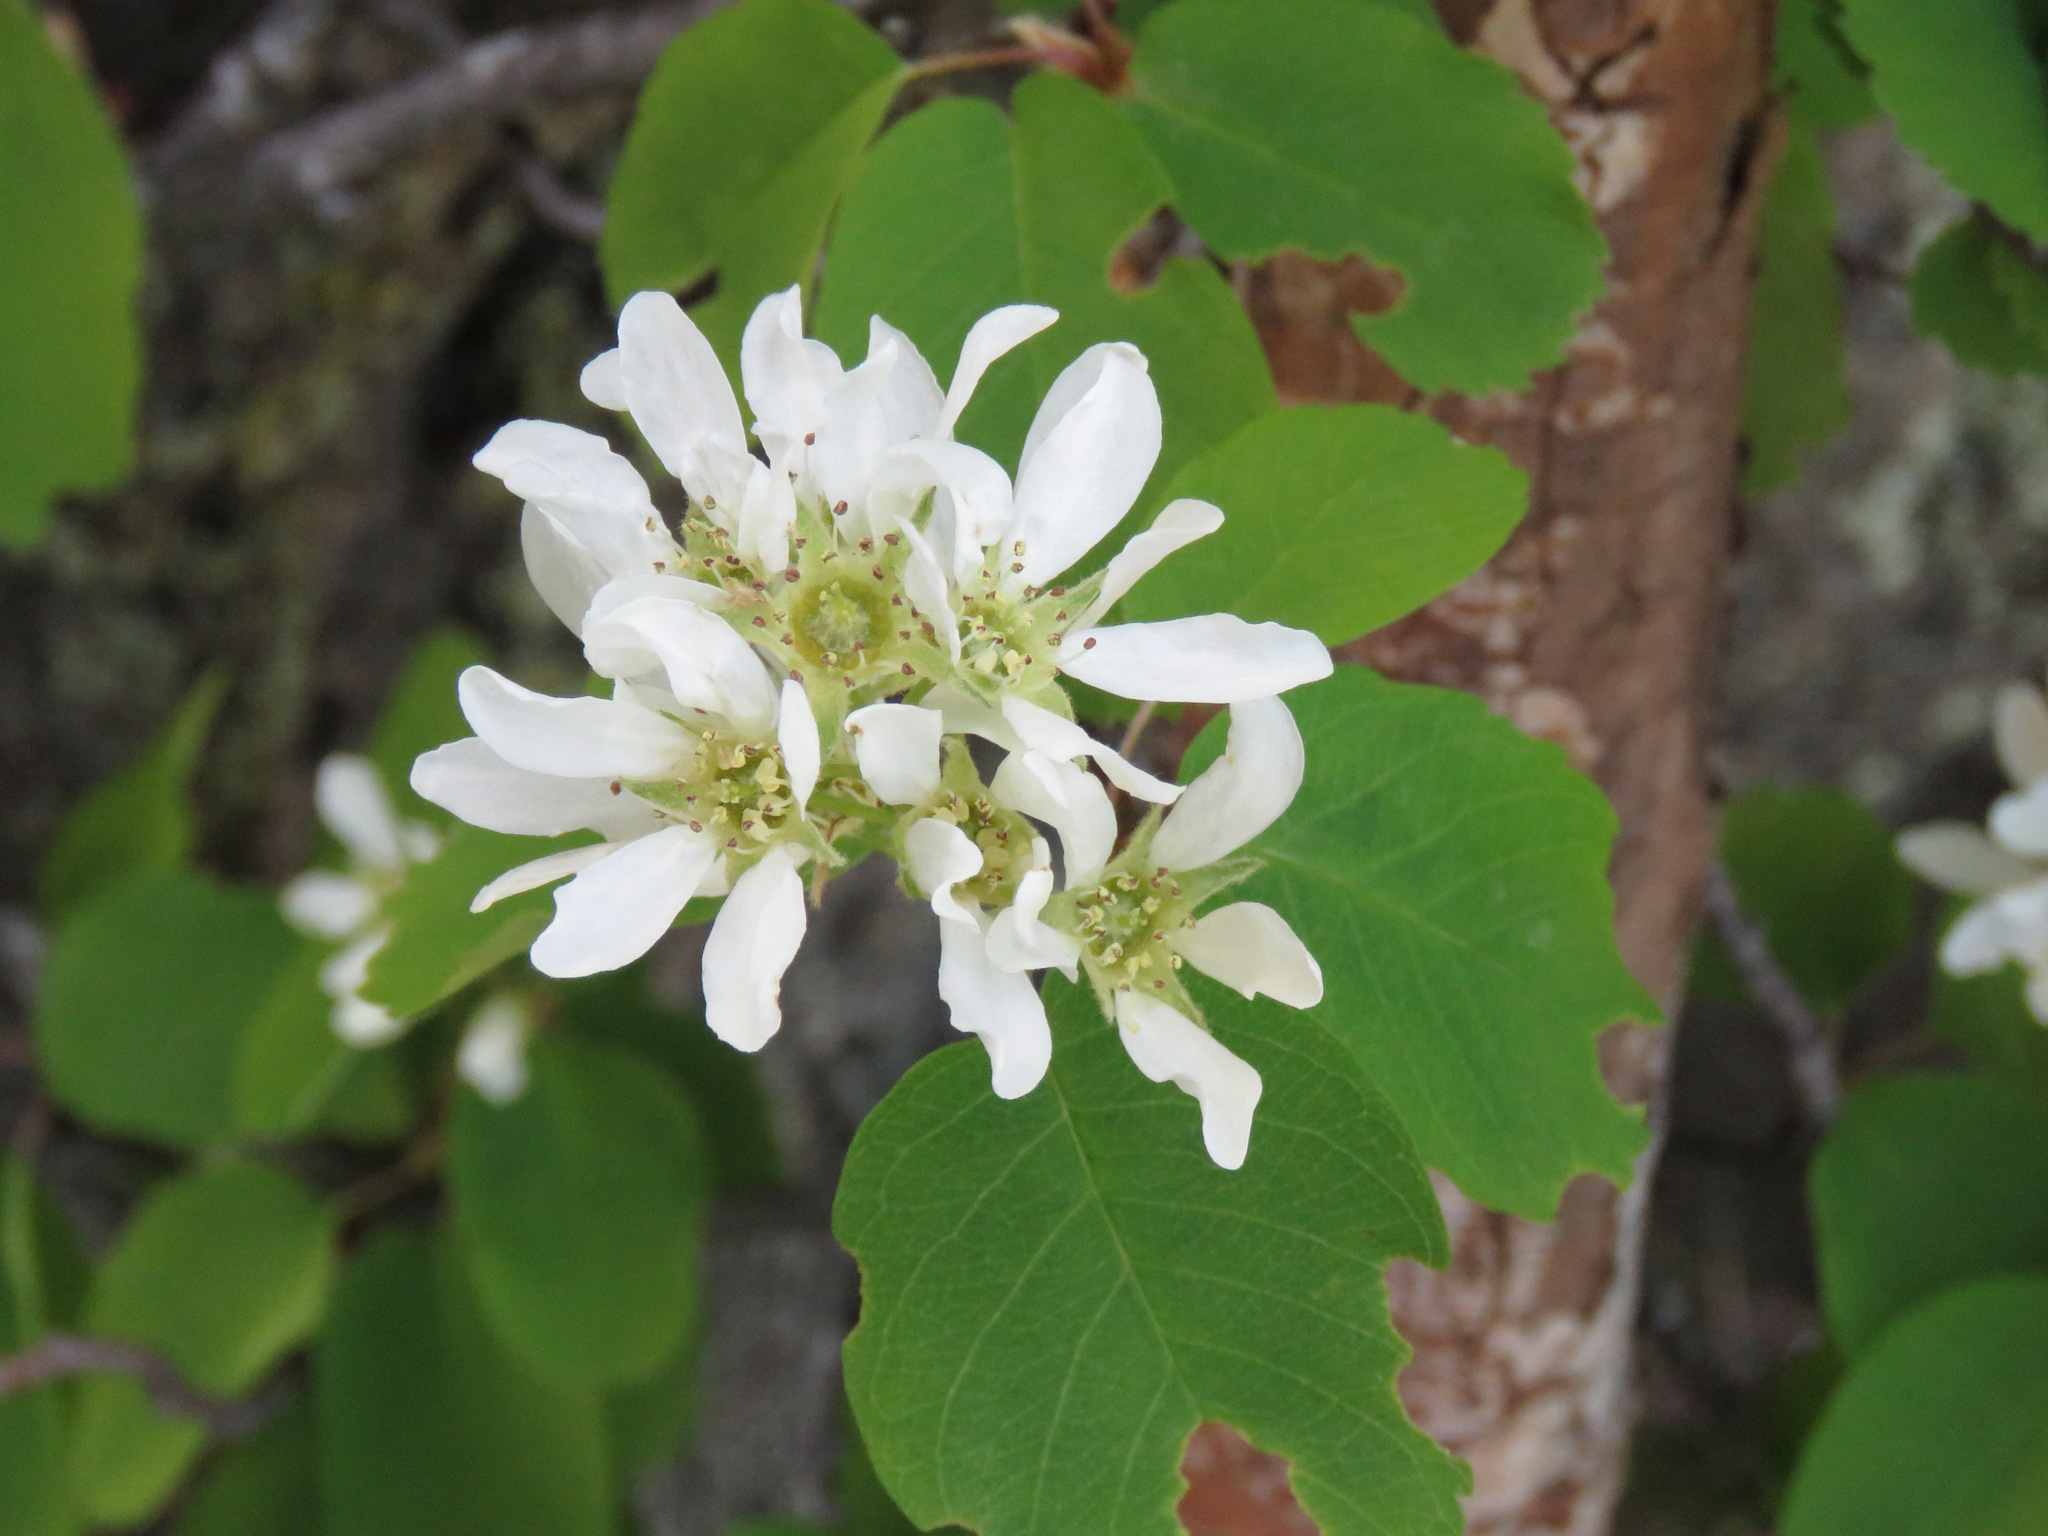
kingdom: Plantae
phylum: Tracheophyta
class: Magnoliopsida
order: Rosales
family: Rosaceae
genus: Amelanchier
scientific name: Amelanchier alnifolia
